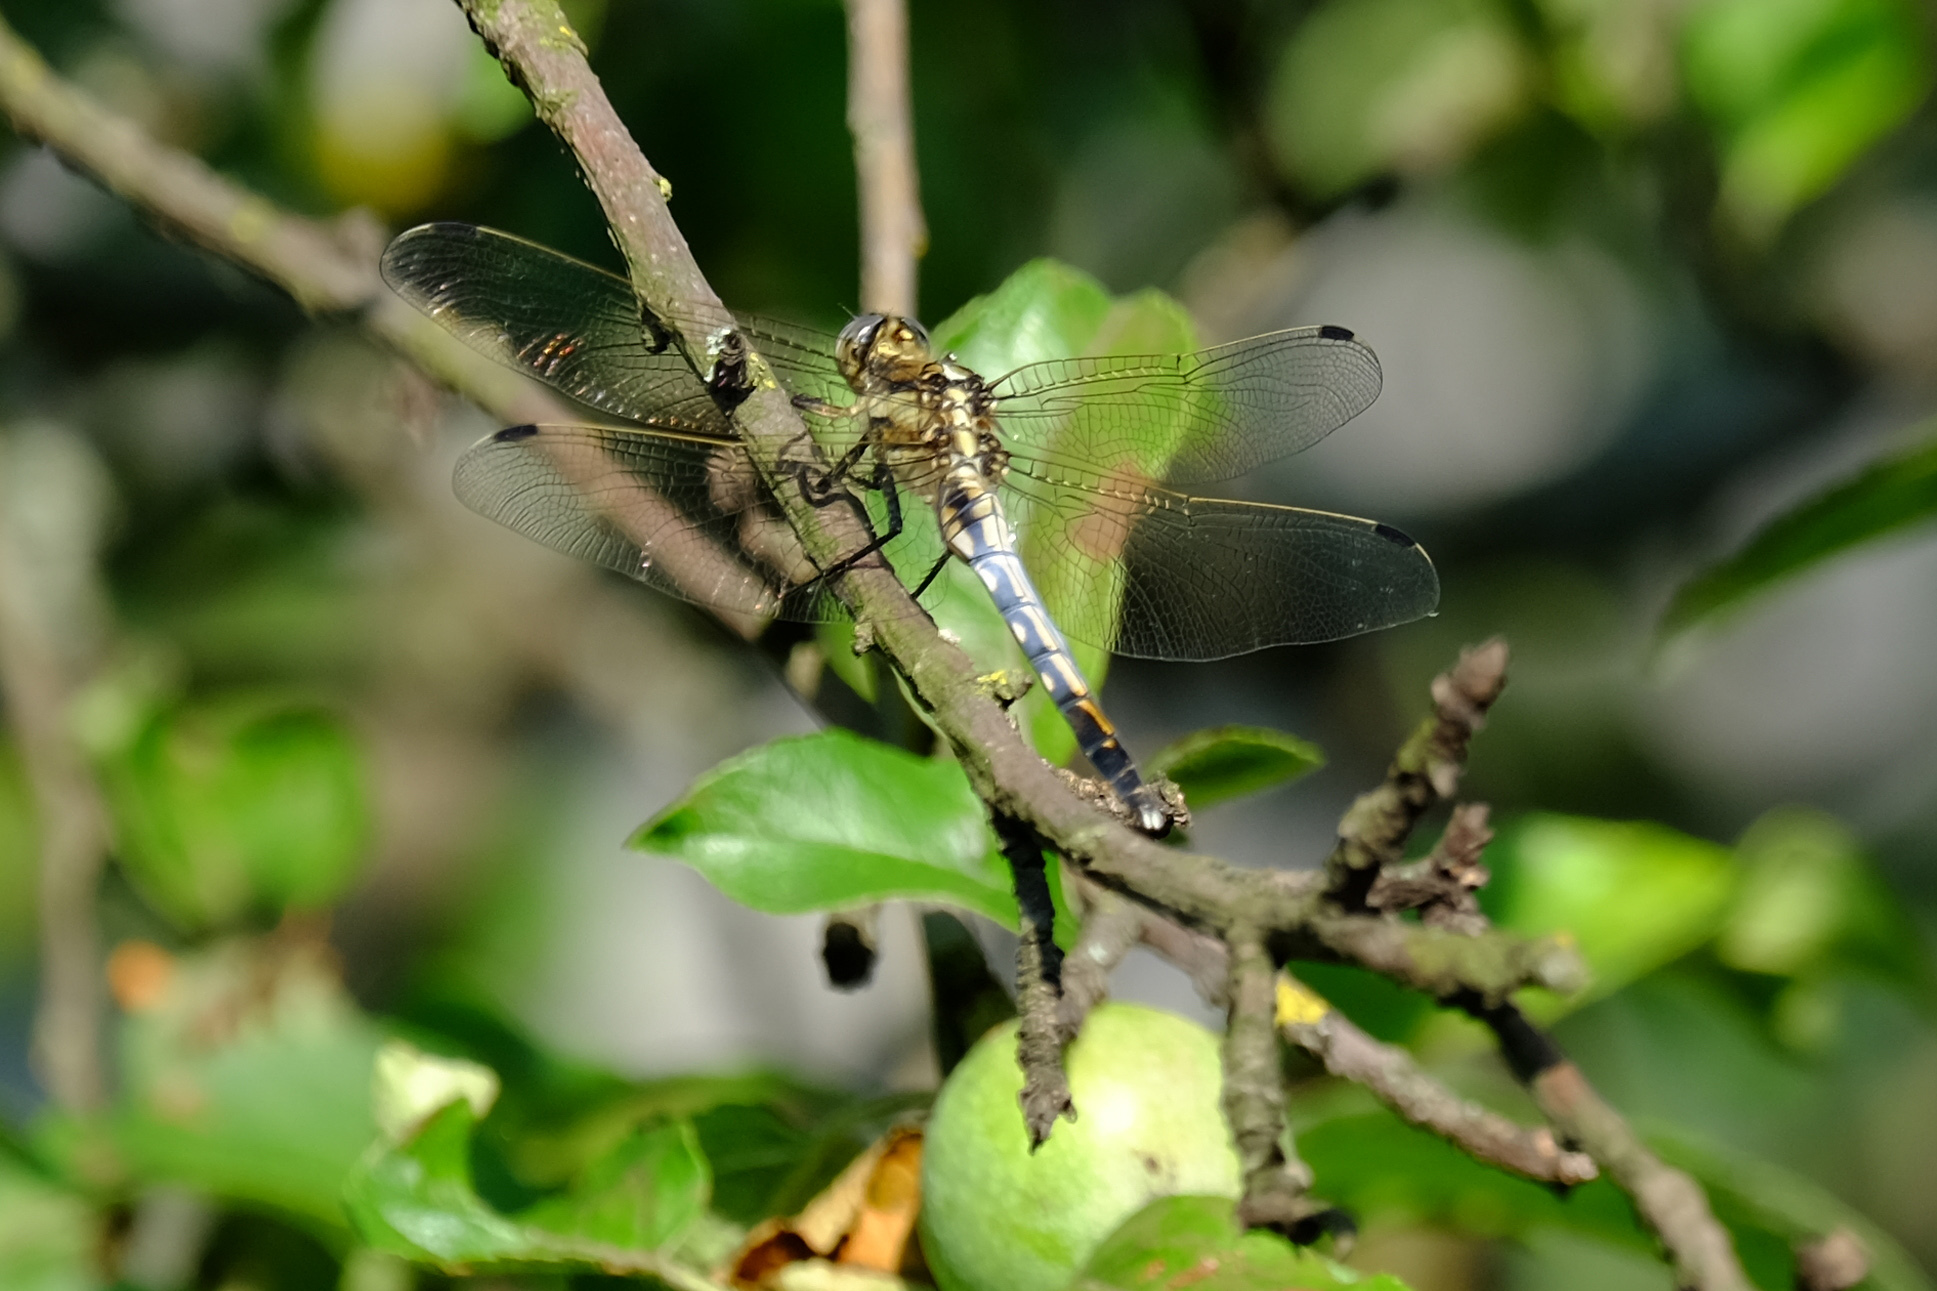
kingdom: Animalia
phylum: Arthropoda
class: Insecta
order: Odonata
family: Libellulidae
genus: Orthetrum
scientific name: Orthetrum albistylum
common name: White-tailed skimmer
